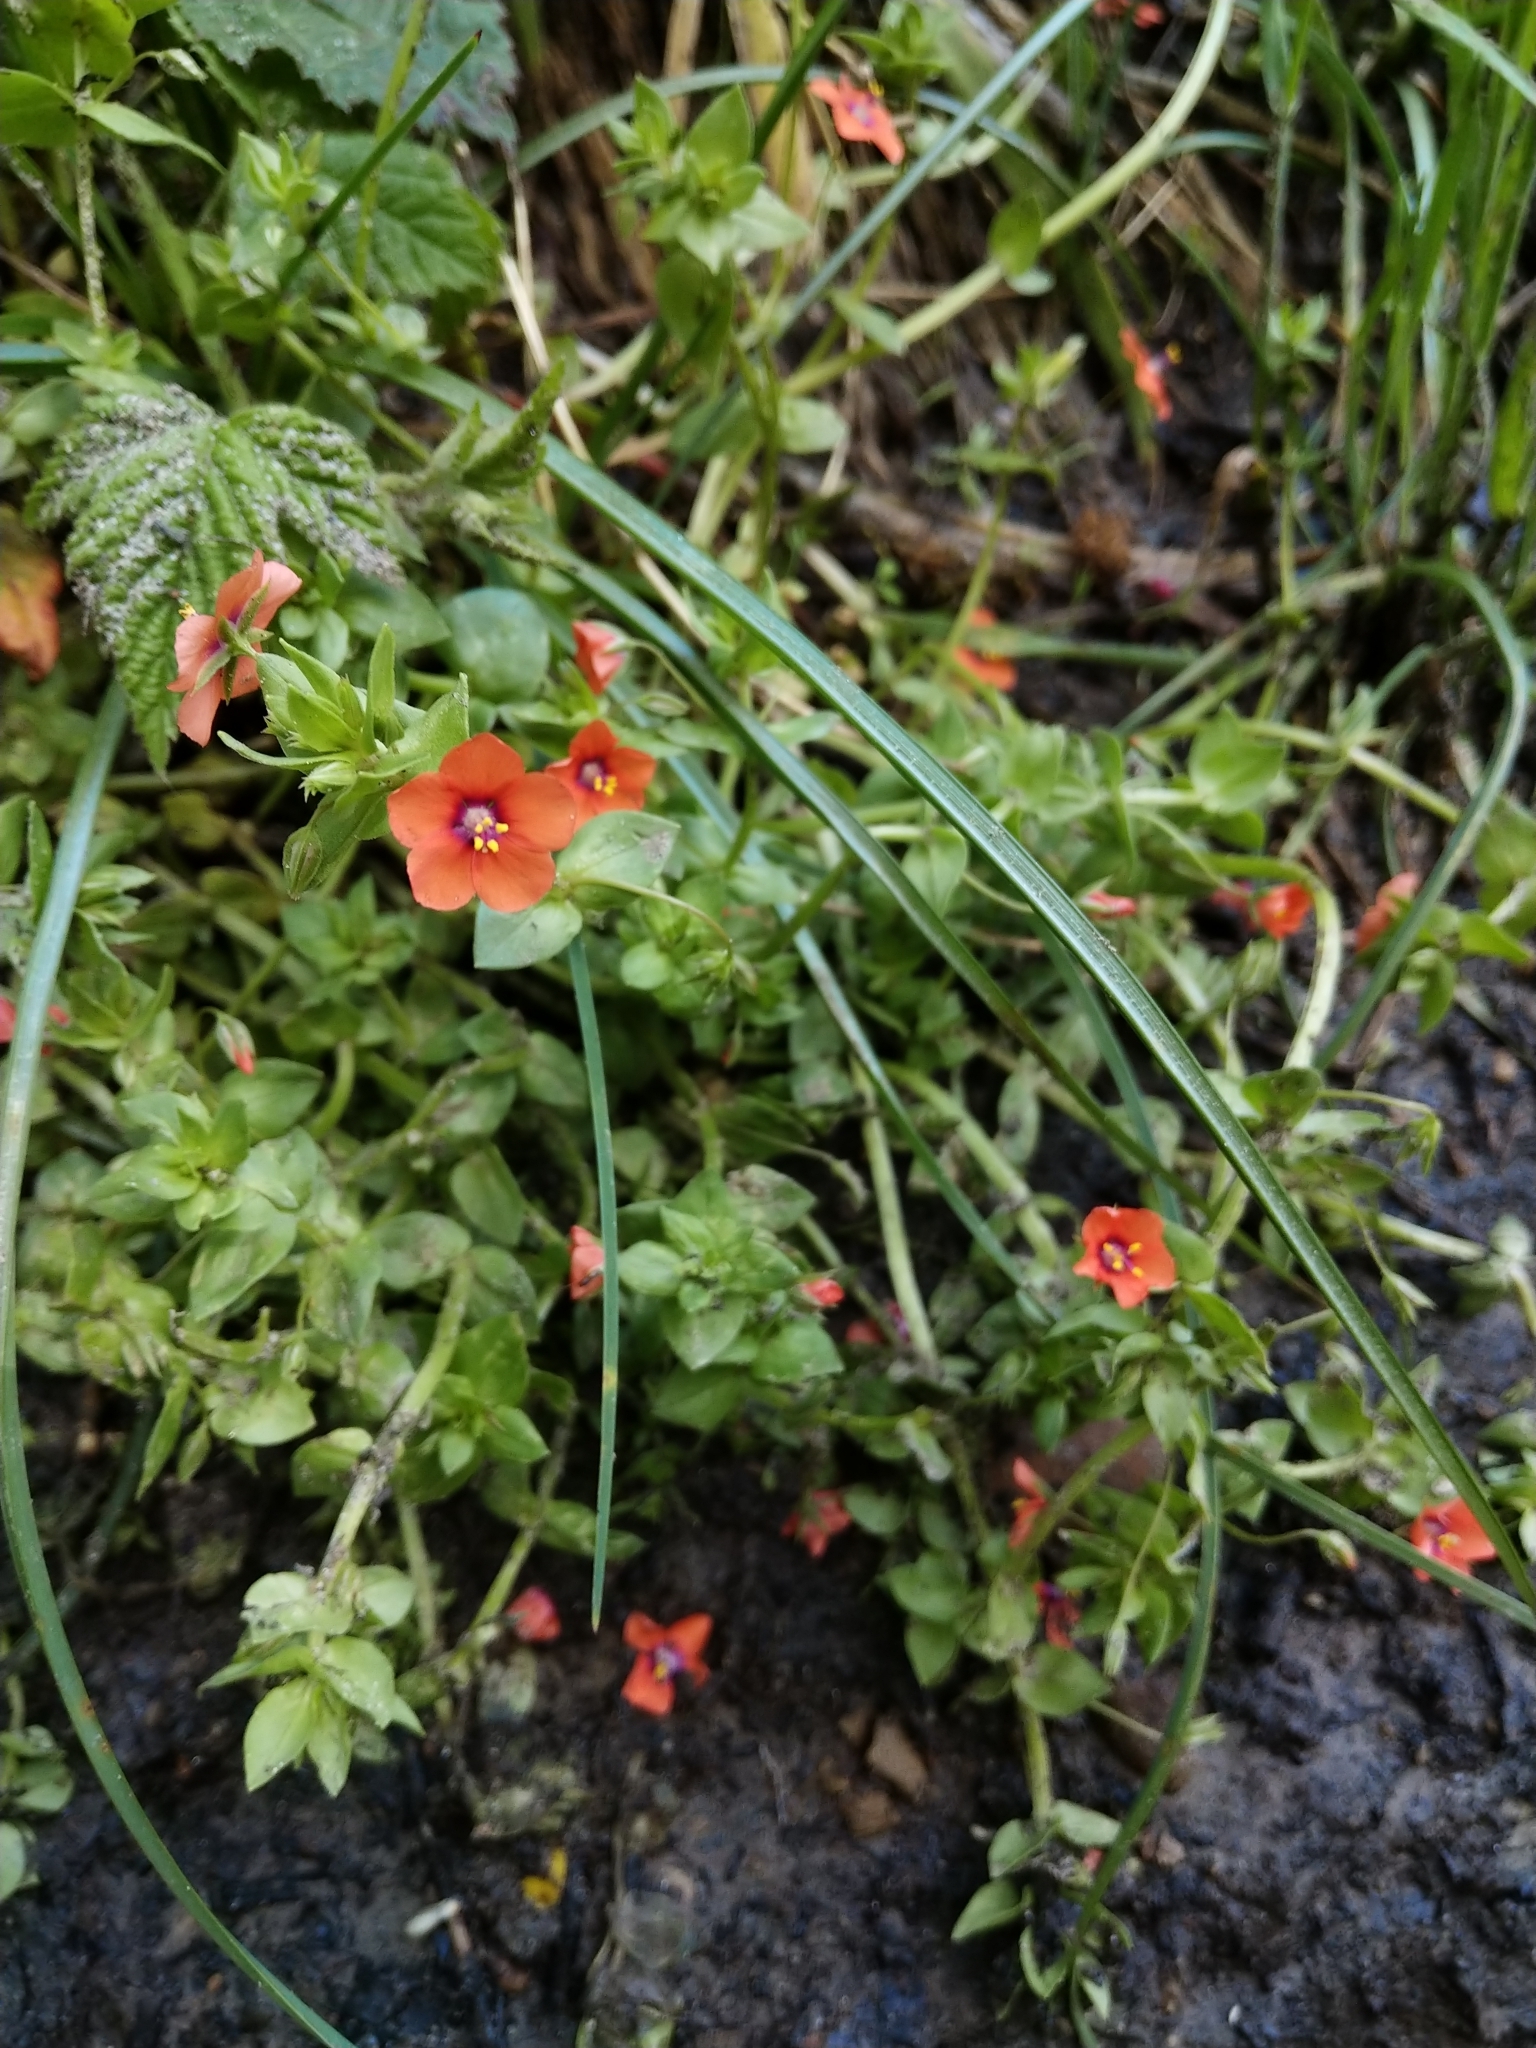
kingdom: Plantae
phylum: Tracheophyta
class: Magnoliopsida
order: Ericales
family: Primulaceae
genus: Lysimachia
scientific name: Lysimachia arvensis
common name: Scarlet pimpernel
